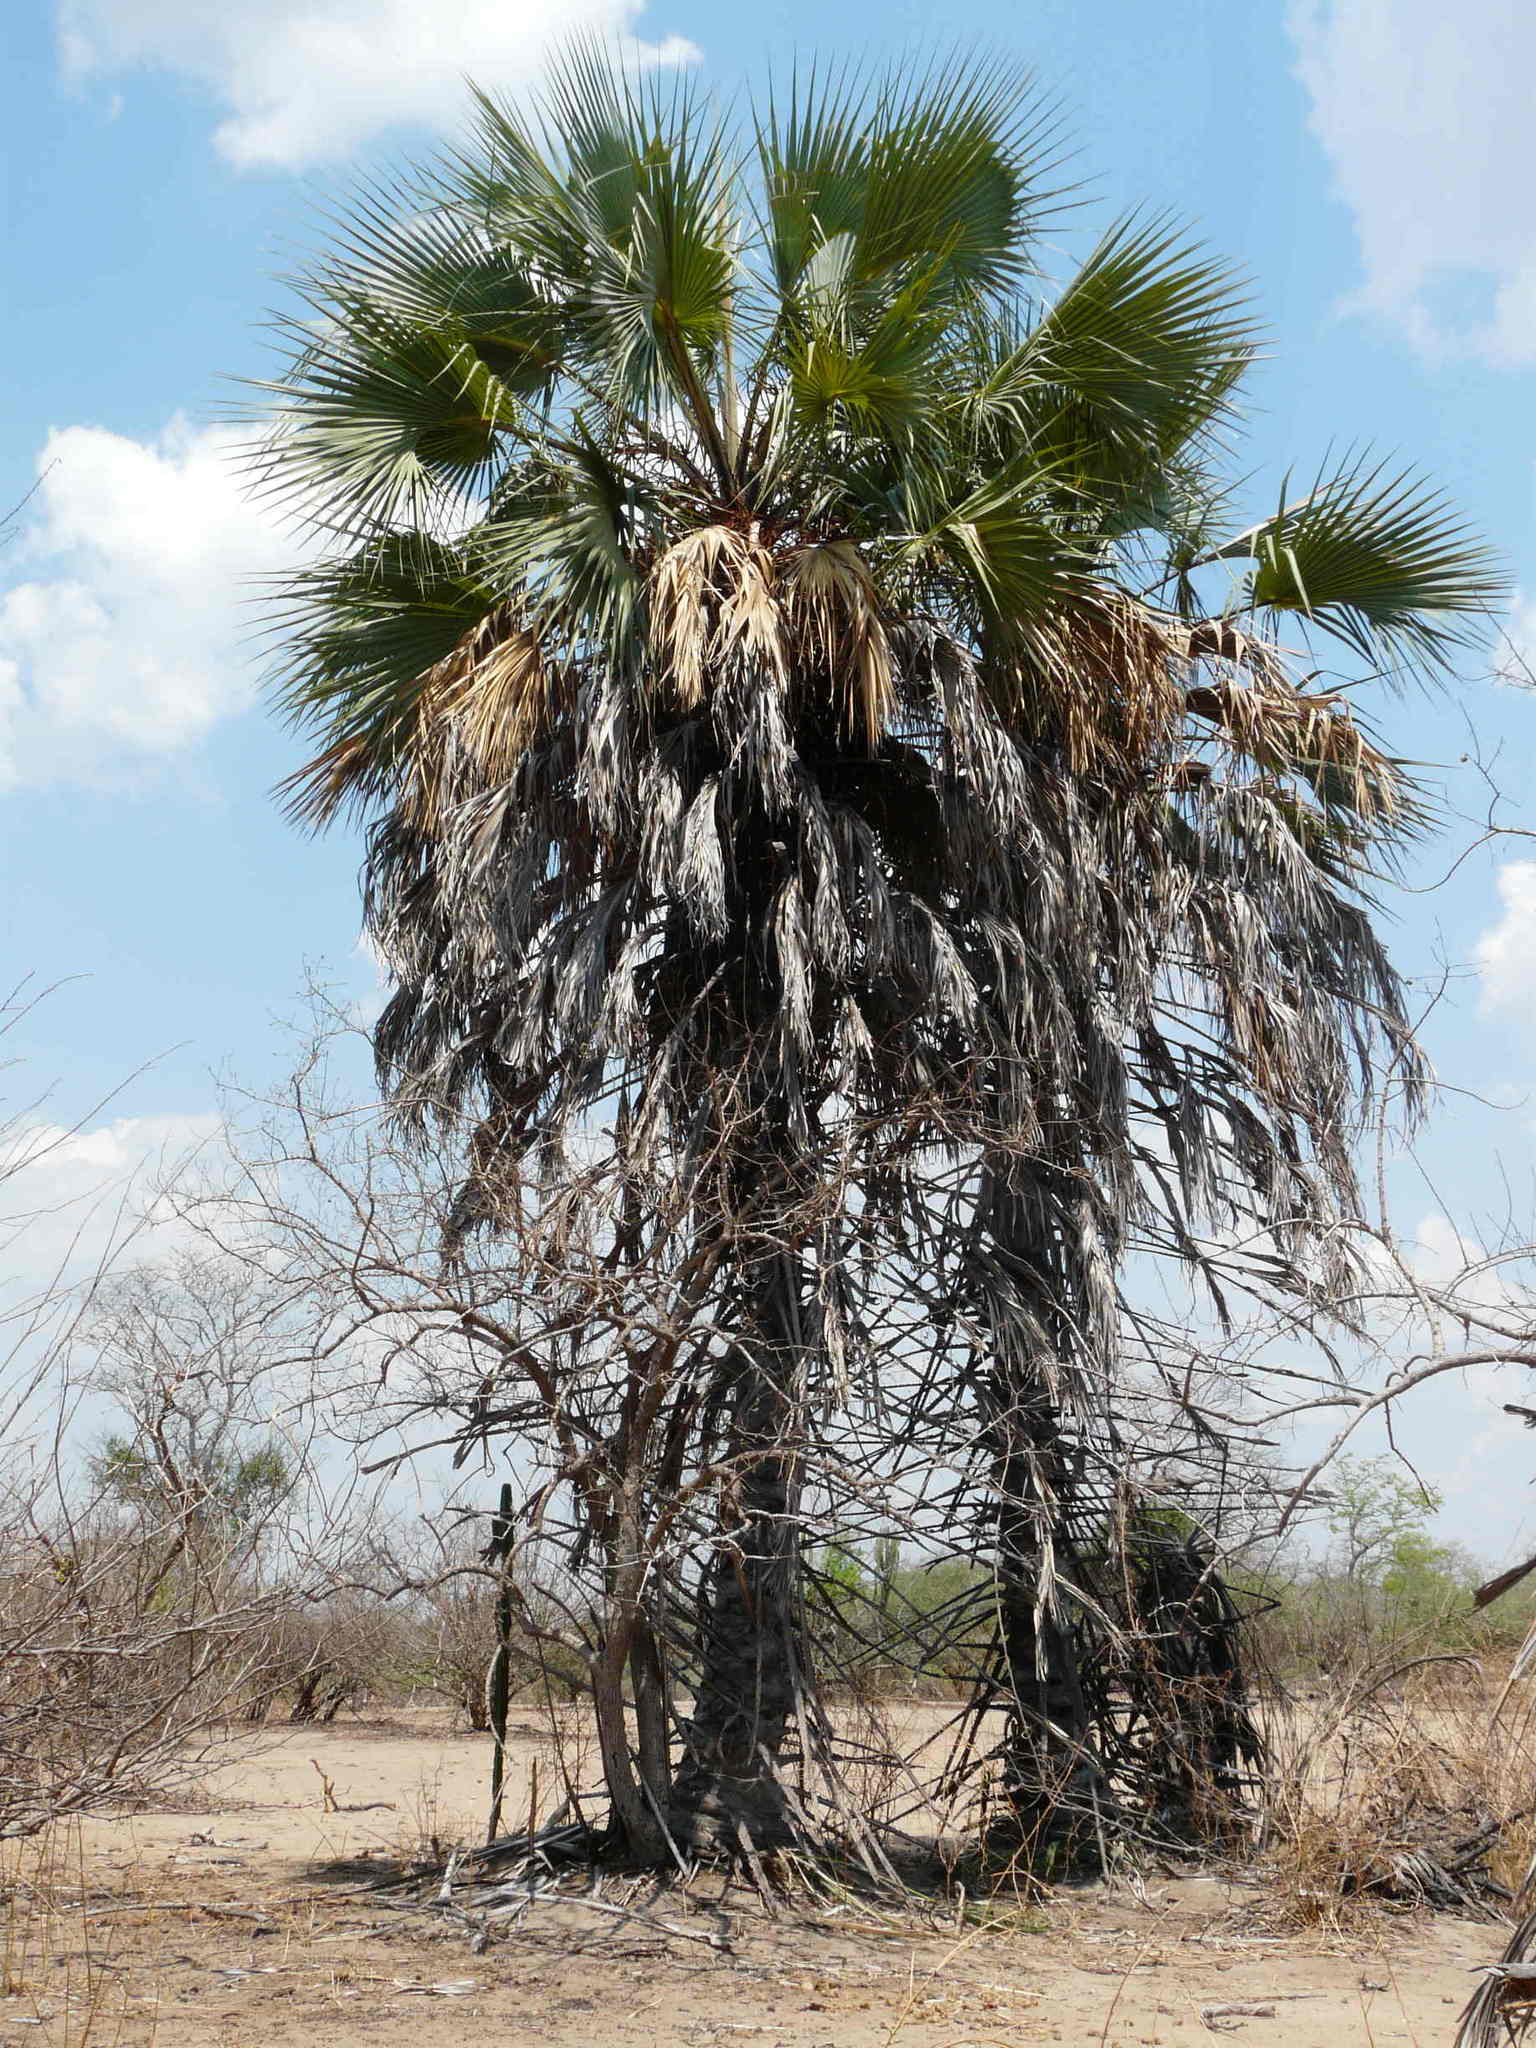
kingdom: Plantae
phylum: Tracheophyta
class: Liliopsida
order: Arecales
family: Arecaceae
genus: Hyphaene
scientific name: Hyphaene petersiana
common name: African ivory nut palm
